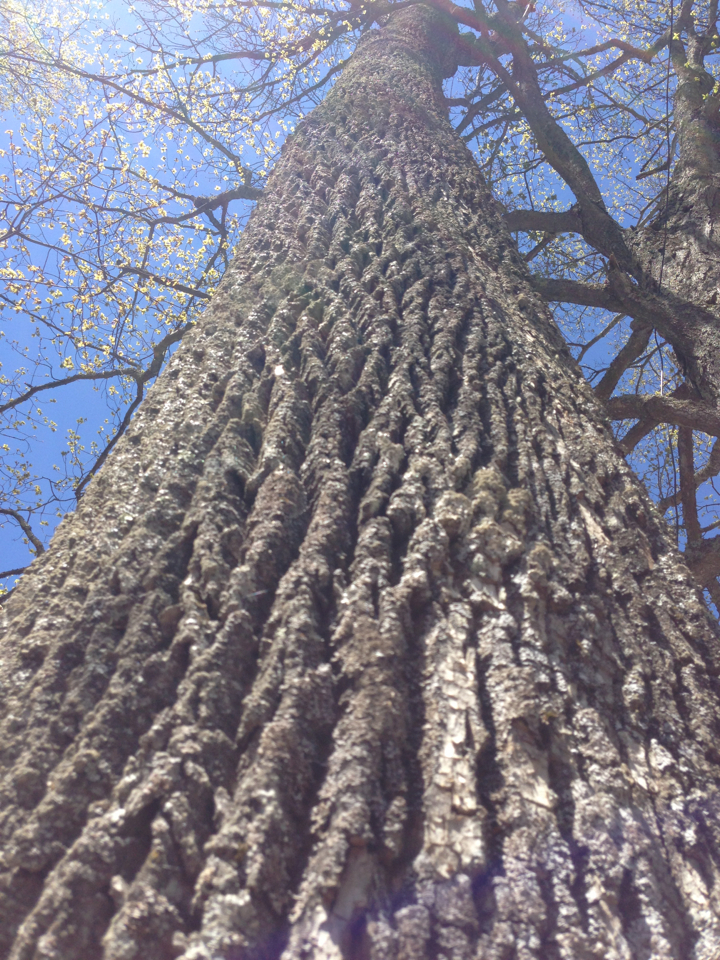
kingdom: Plantae
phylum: Tracheophyta
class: Magnoliopsida
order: Lamiales
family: Oleaceae
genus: Fraxinus
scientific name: Fraxinus americana
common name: White ash
